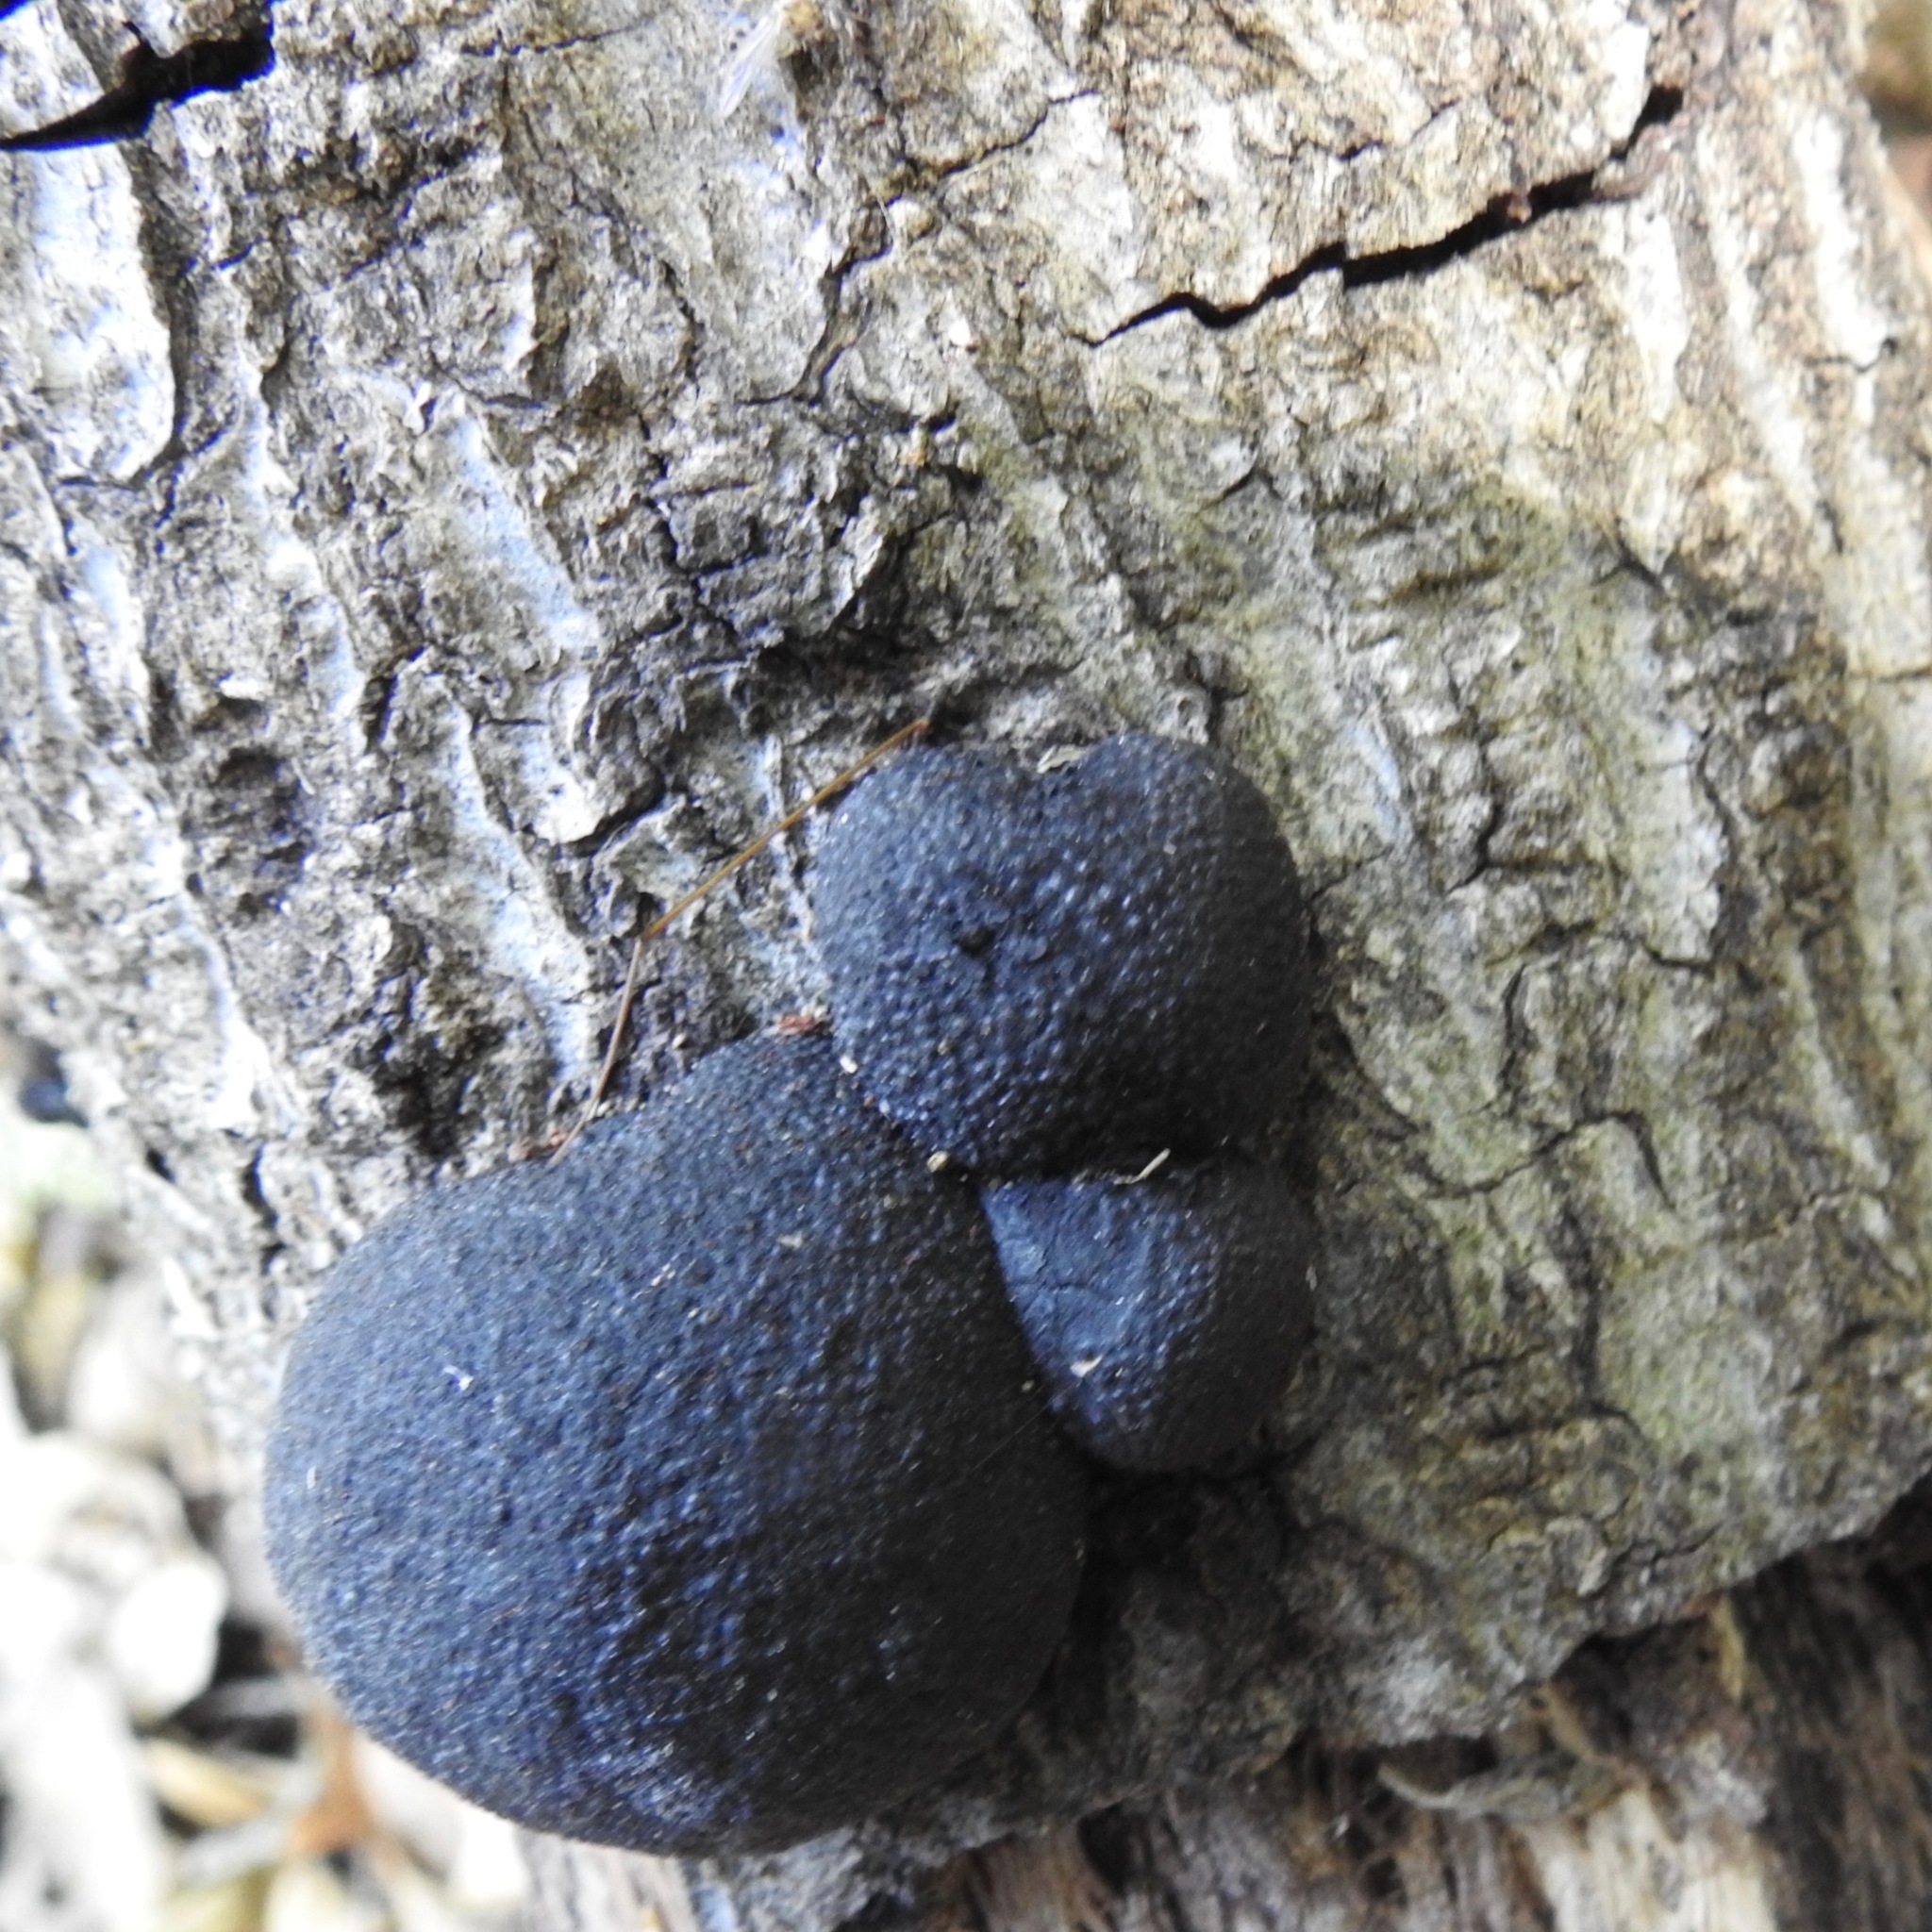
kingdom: Fungi
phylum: Ascomycota
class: Sordariomycetes
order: Xylariales
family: Hypoxylaceae
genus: Annulohypoxylon
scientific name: Annulohypoxylon thouarsianum
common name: Cramp balls
